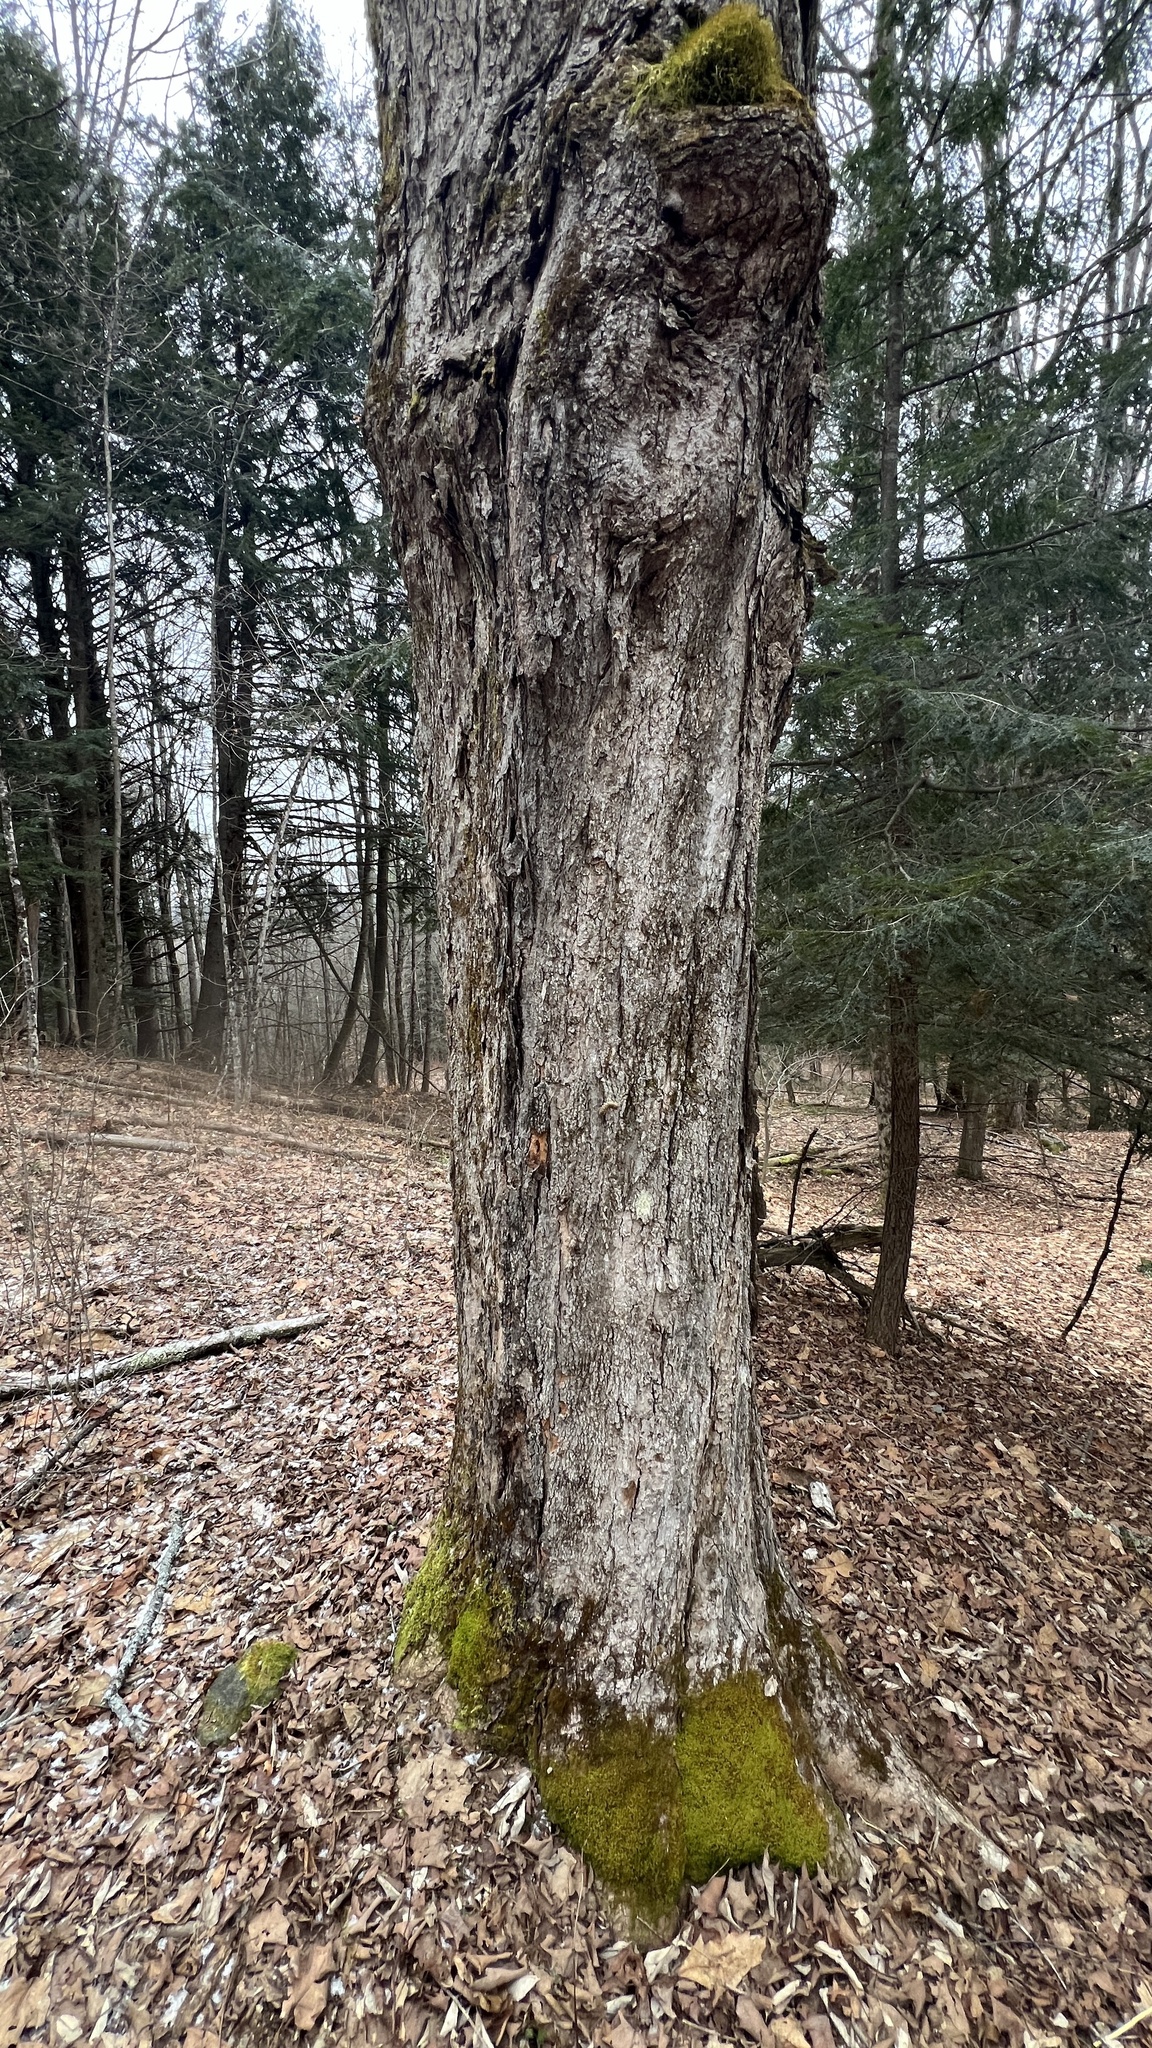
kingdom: Plantae
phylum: Tracheophyta
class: Magnoliopsida
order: Sapindales
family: Sapindaceae
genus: Acer
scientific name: Acer saccharum
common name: Sugar maple
